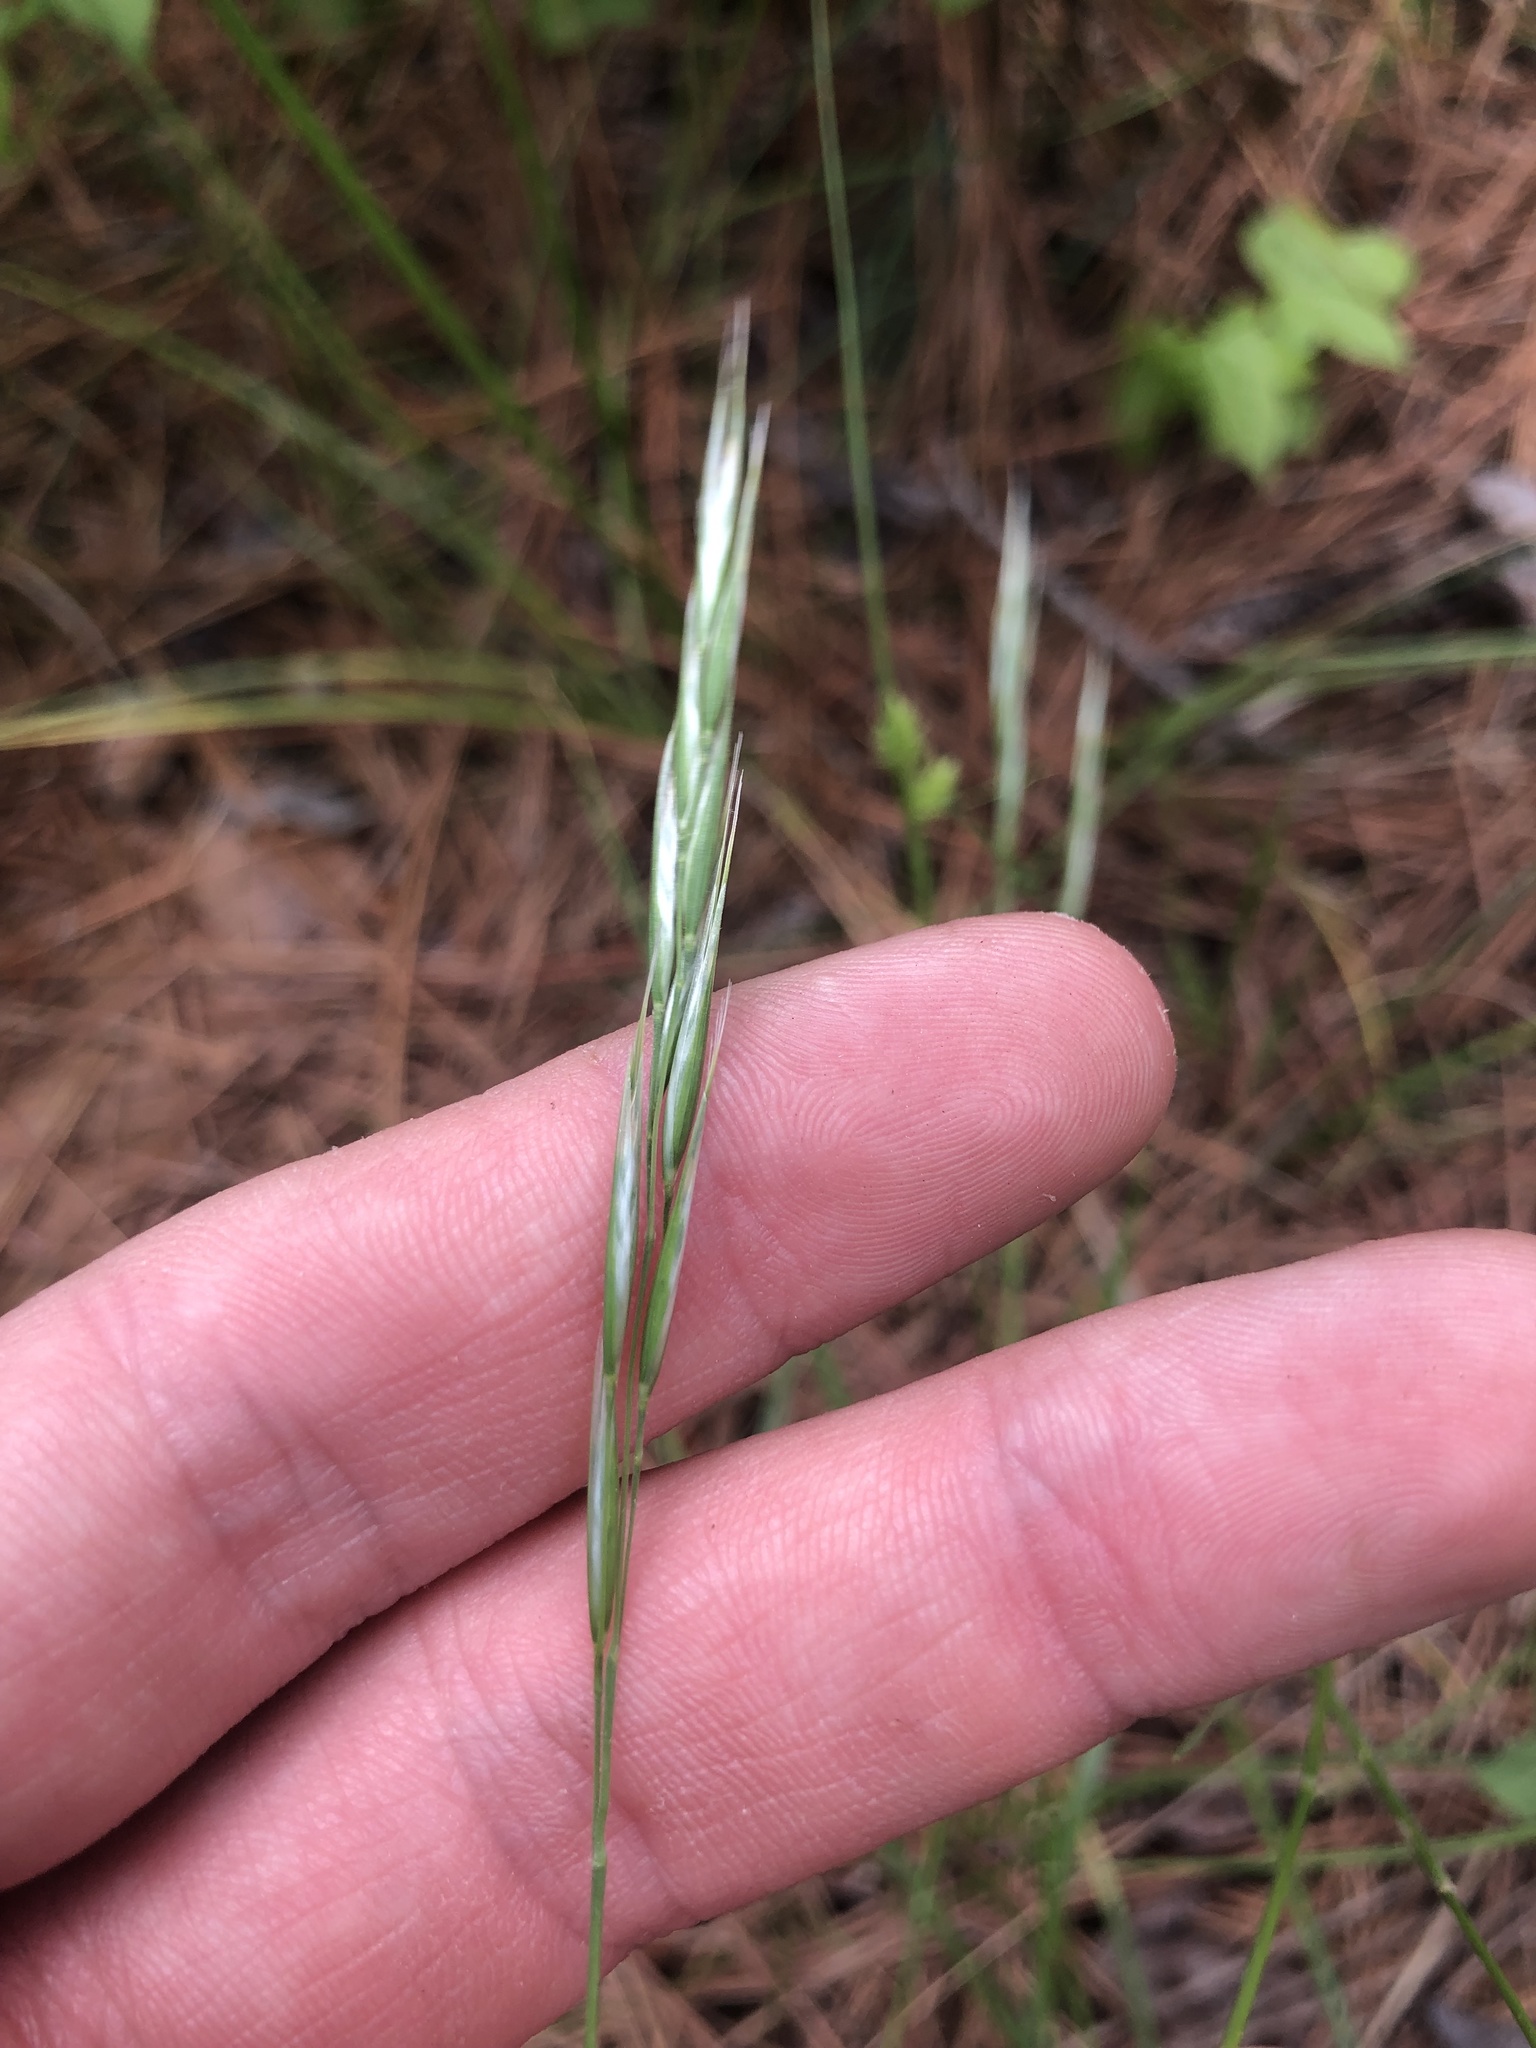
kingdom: Plantae
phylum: Tracheophyta
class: Liliopsida
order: Poales
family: Poaceae
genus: Danthonia
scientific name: Danthonia sericea
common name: Downy danthonia
